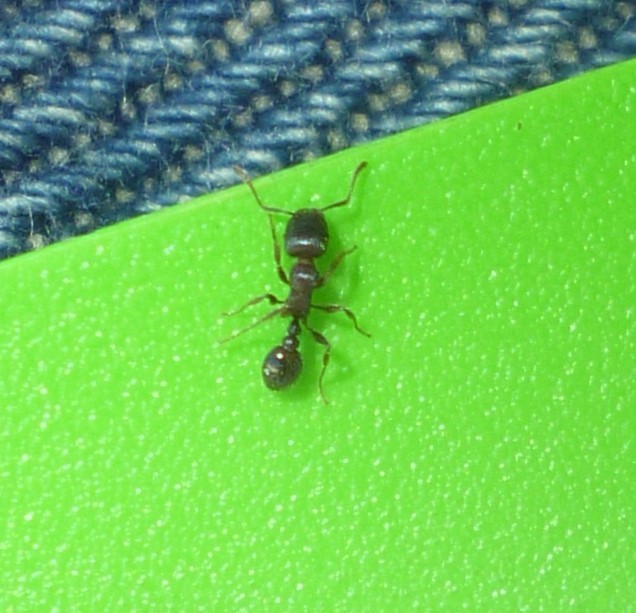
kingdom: Animalia
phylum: Arthropoda
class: Insecta
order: Hymenoptera
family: Formicidae
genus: Tetramorium
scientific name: Tetramorium immigrans
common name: Pavement ant
